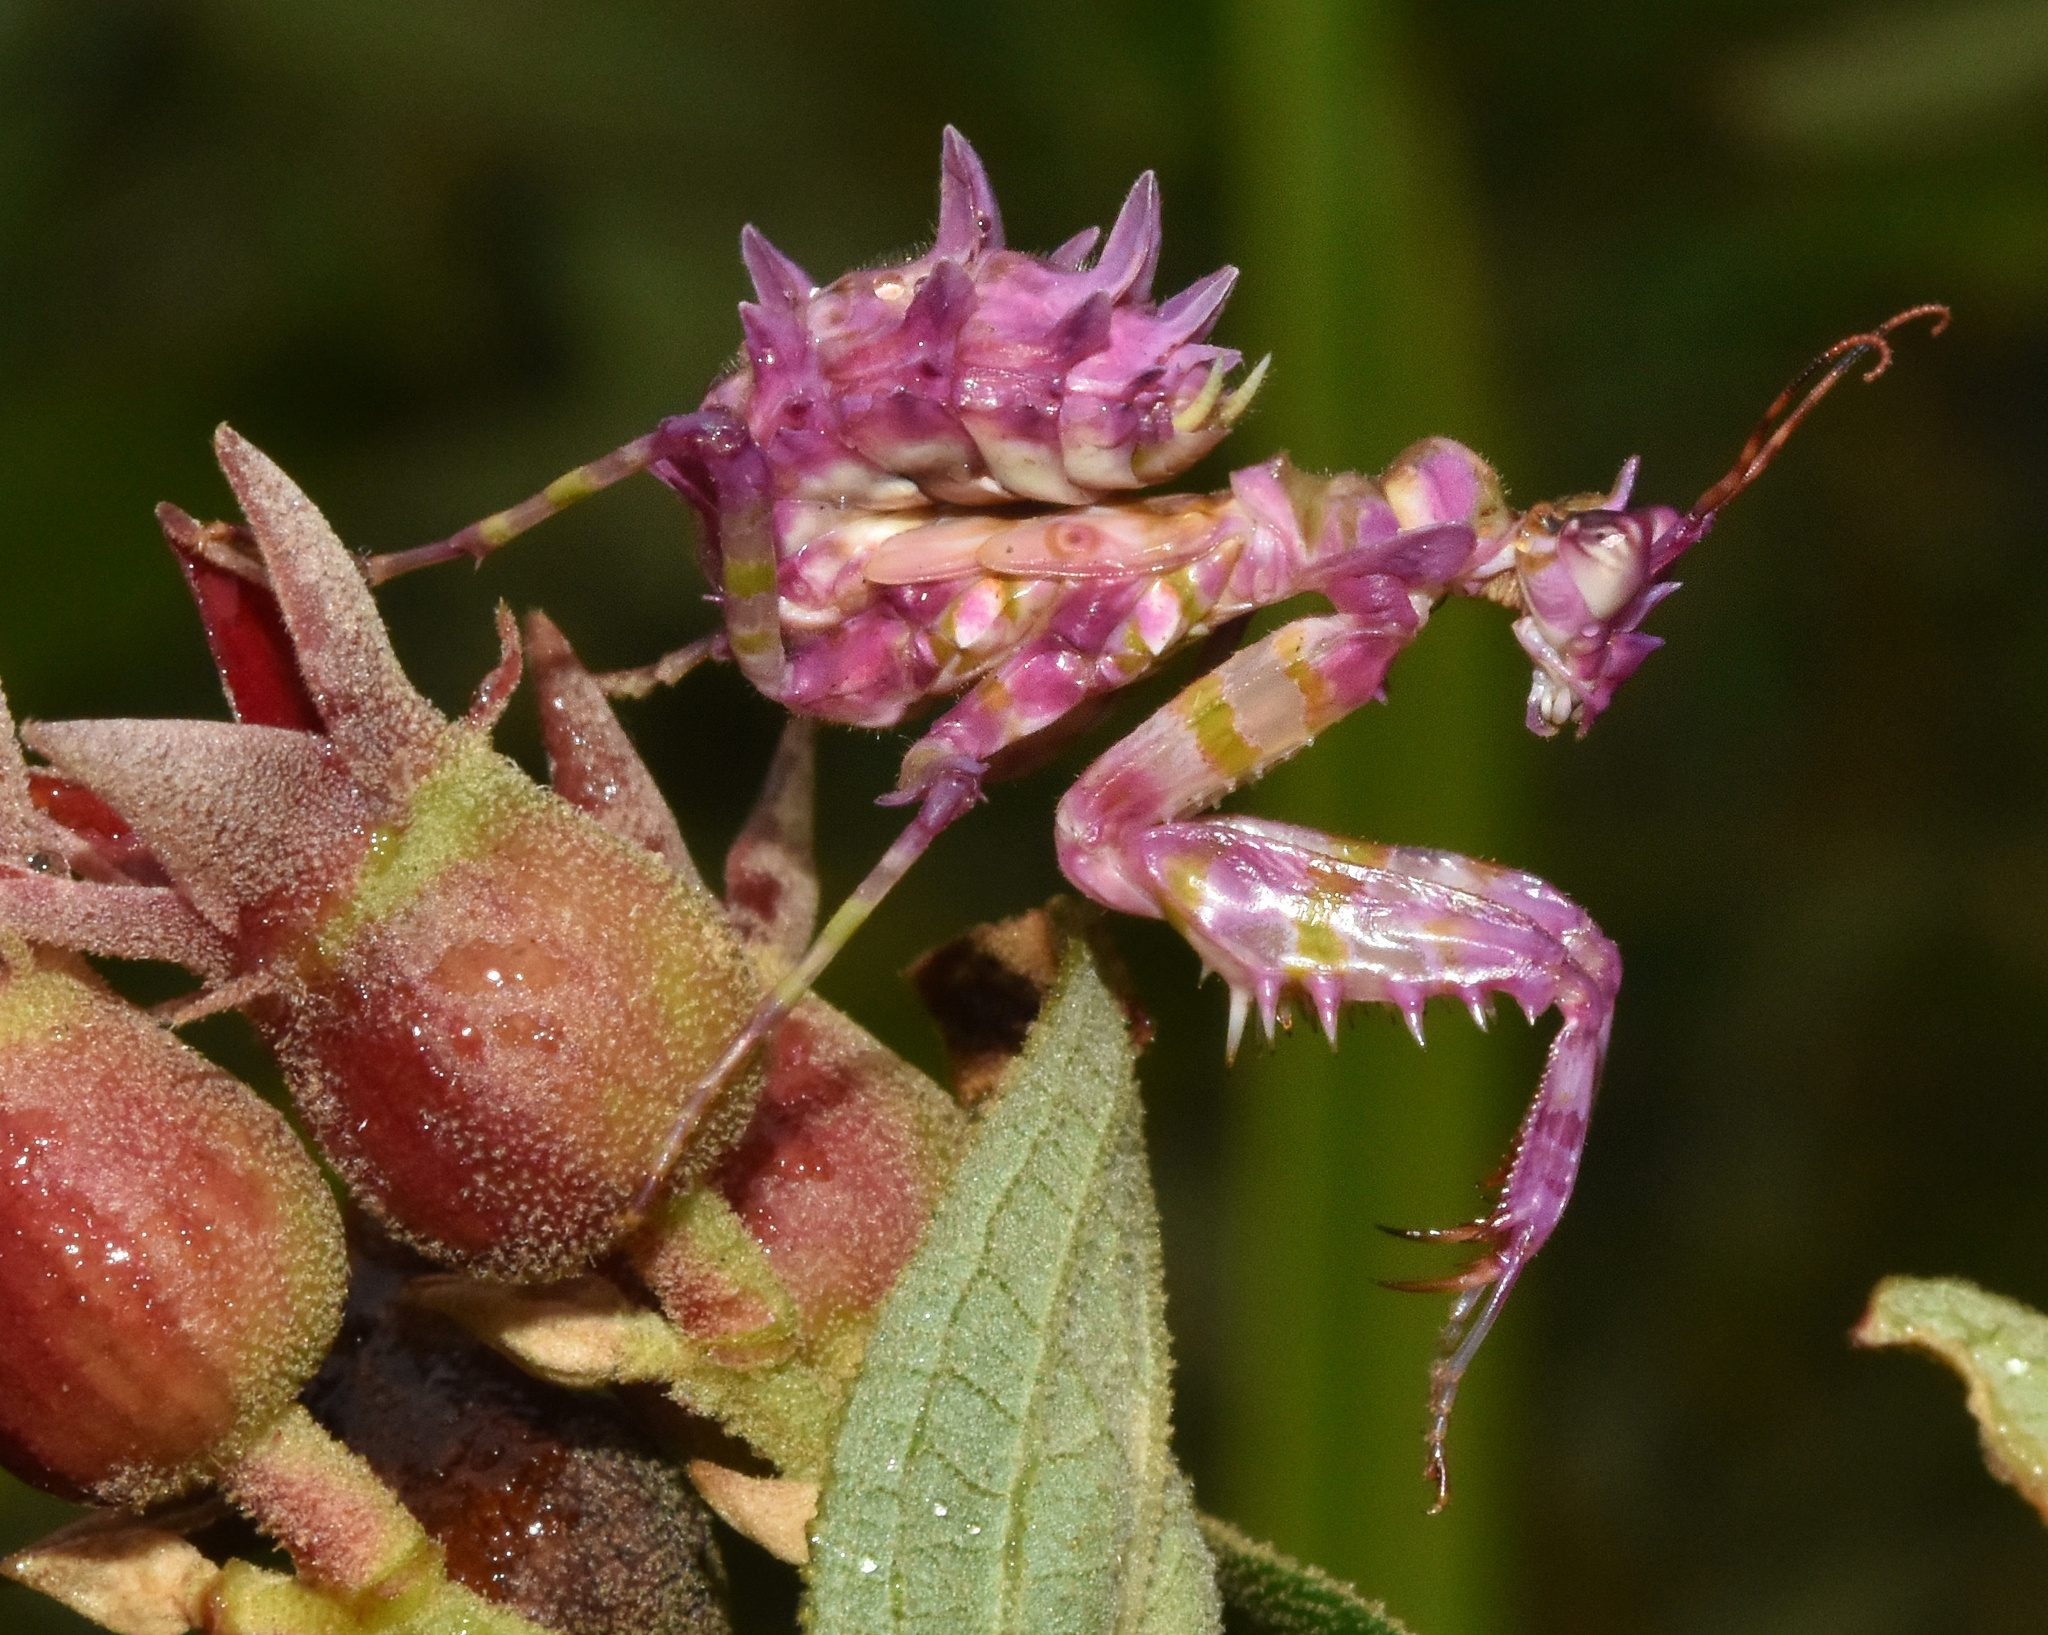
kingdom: Animalia
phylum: Arthropoda
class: Insecta
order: Mantodea
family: Hymenopodidae
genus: Pseudocreobotra
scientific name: Pseudocreobotra wahlbergi
